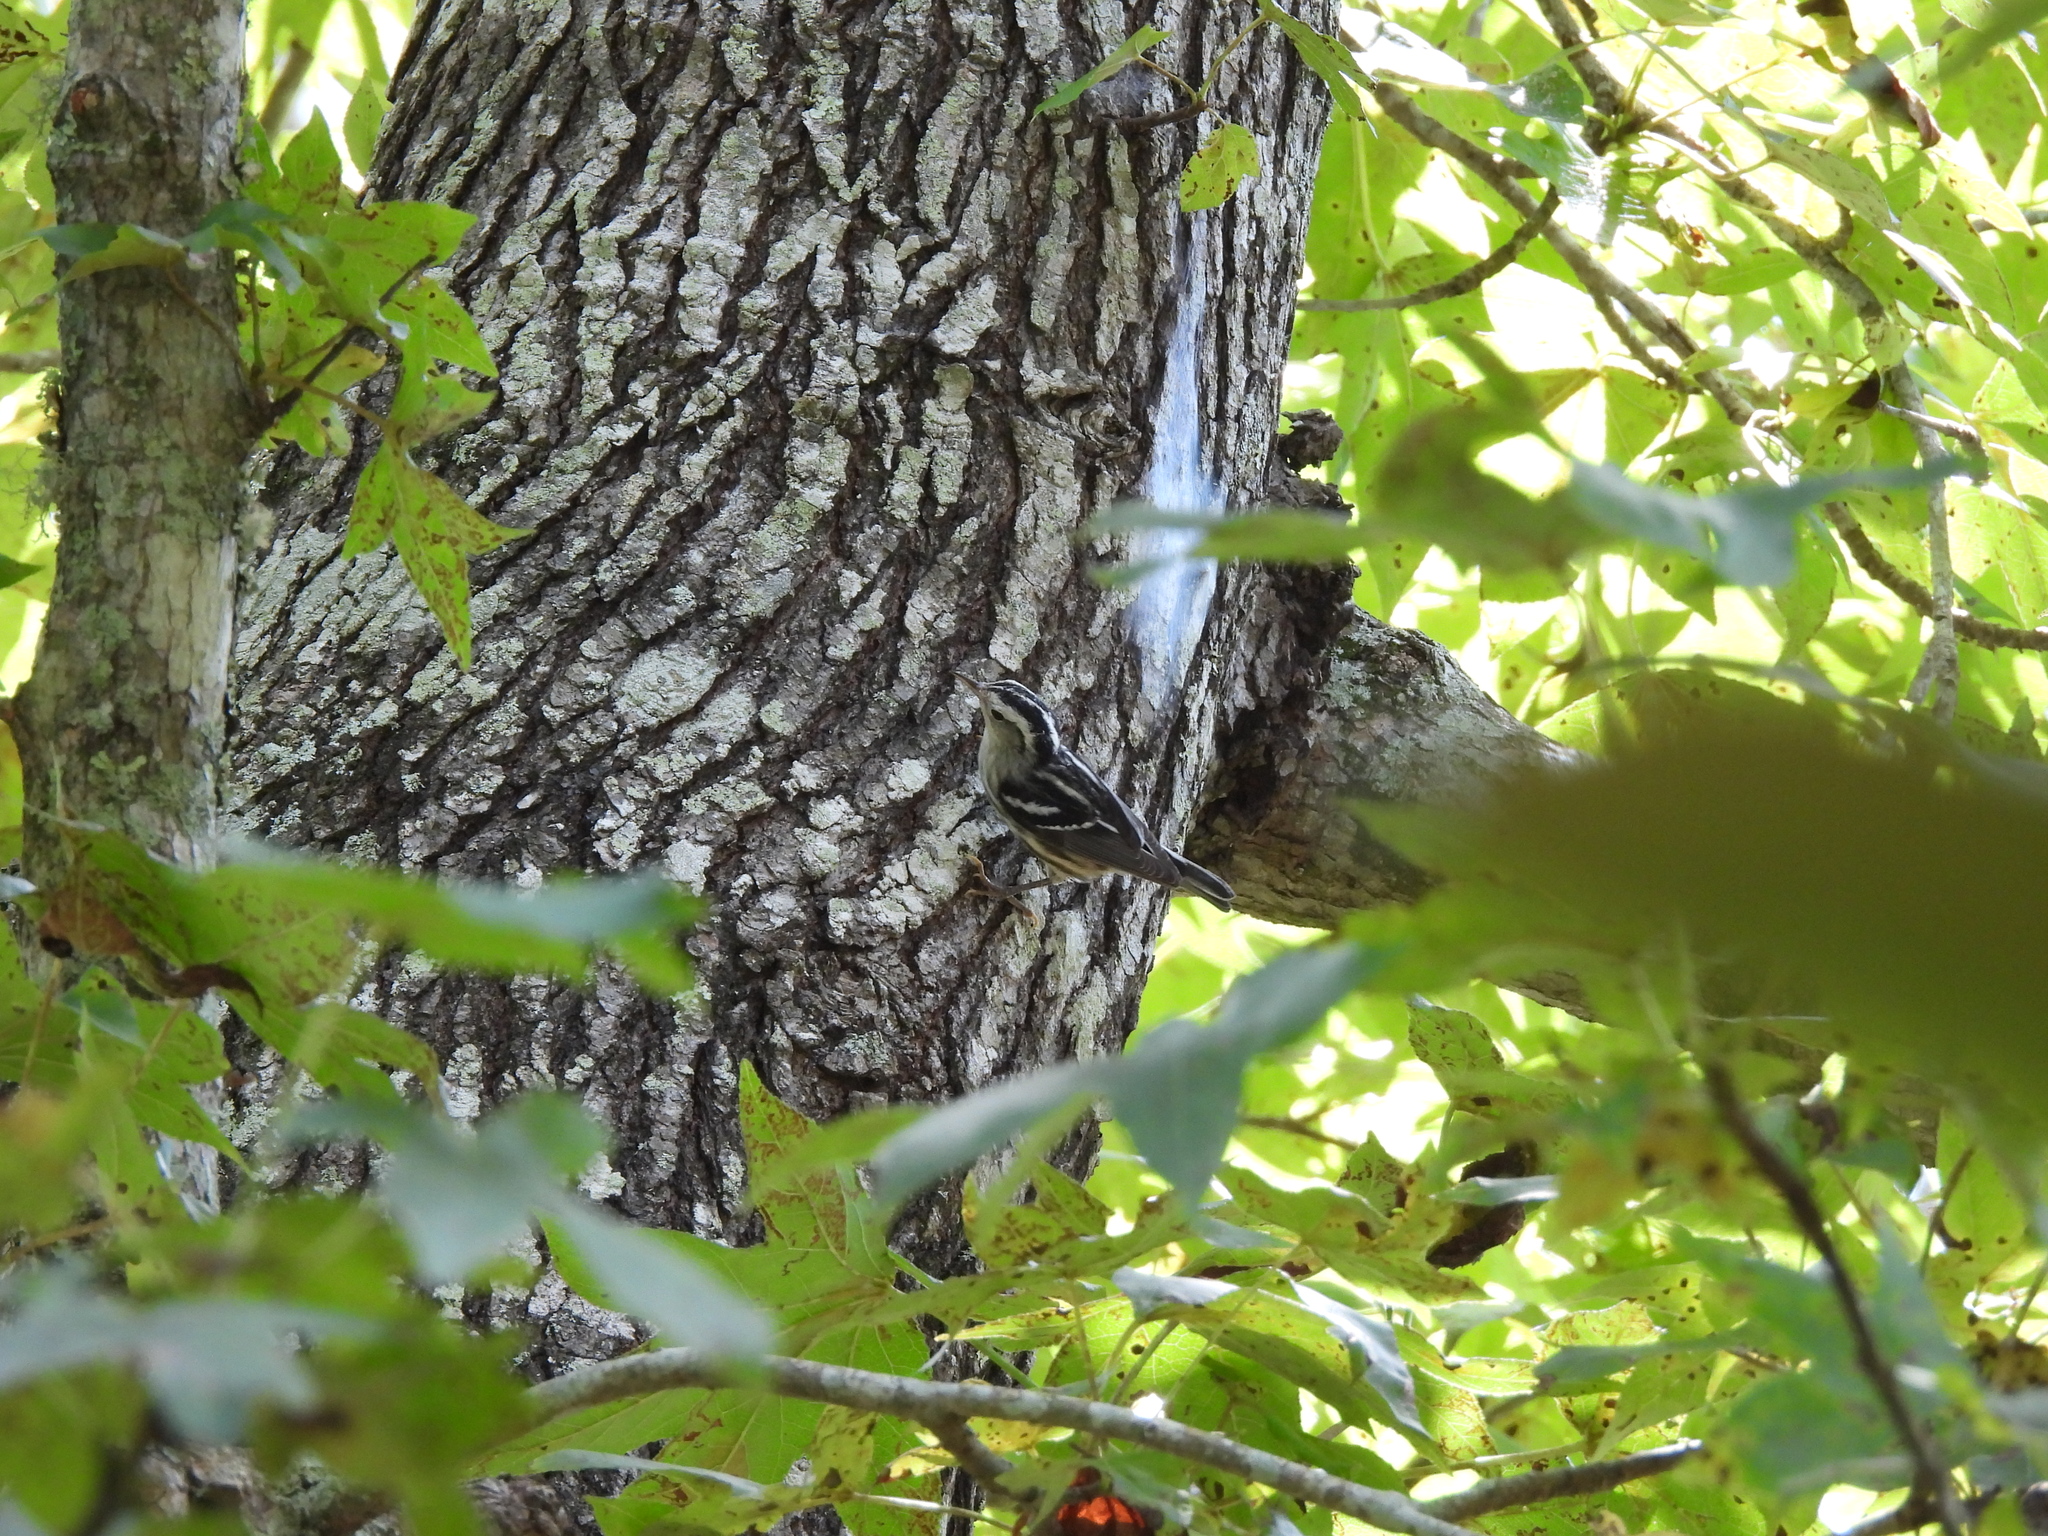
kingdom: Animalia
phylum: Chordata
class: Aves
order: Passeriformes
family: Parulidae
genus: Mniotilta
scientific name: Mniotilta varia
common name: Black-and-white warbler
